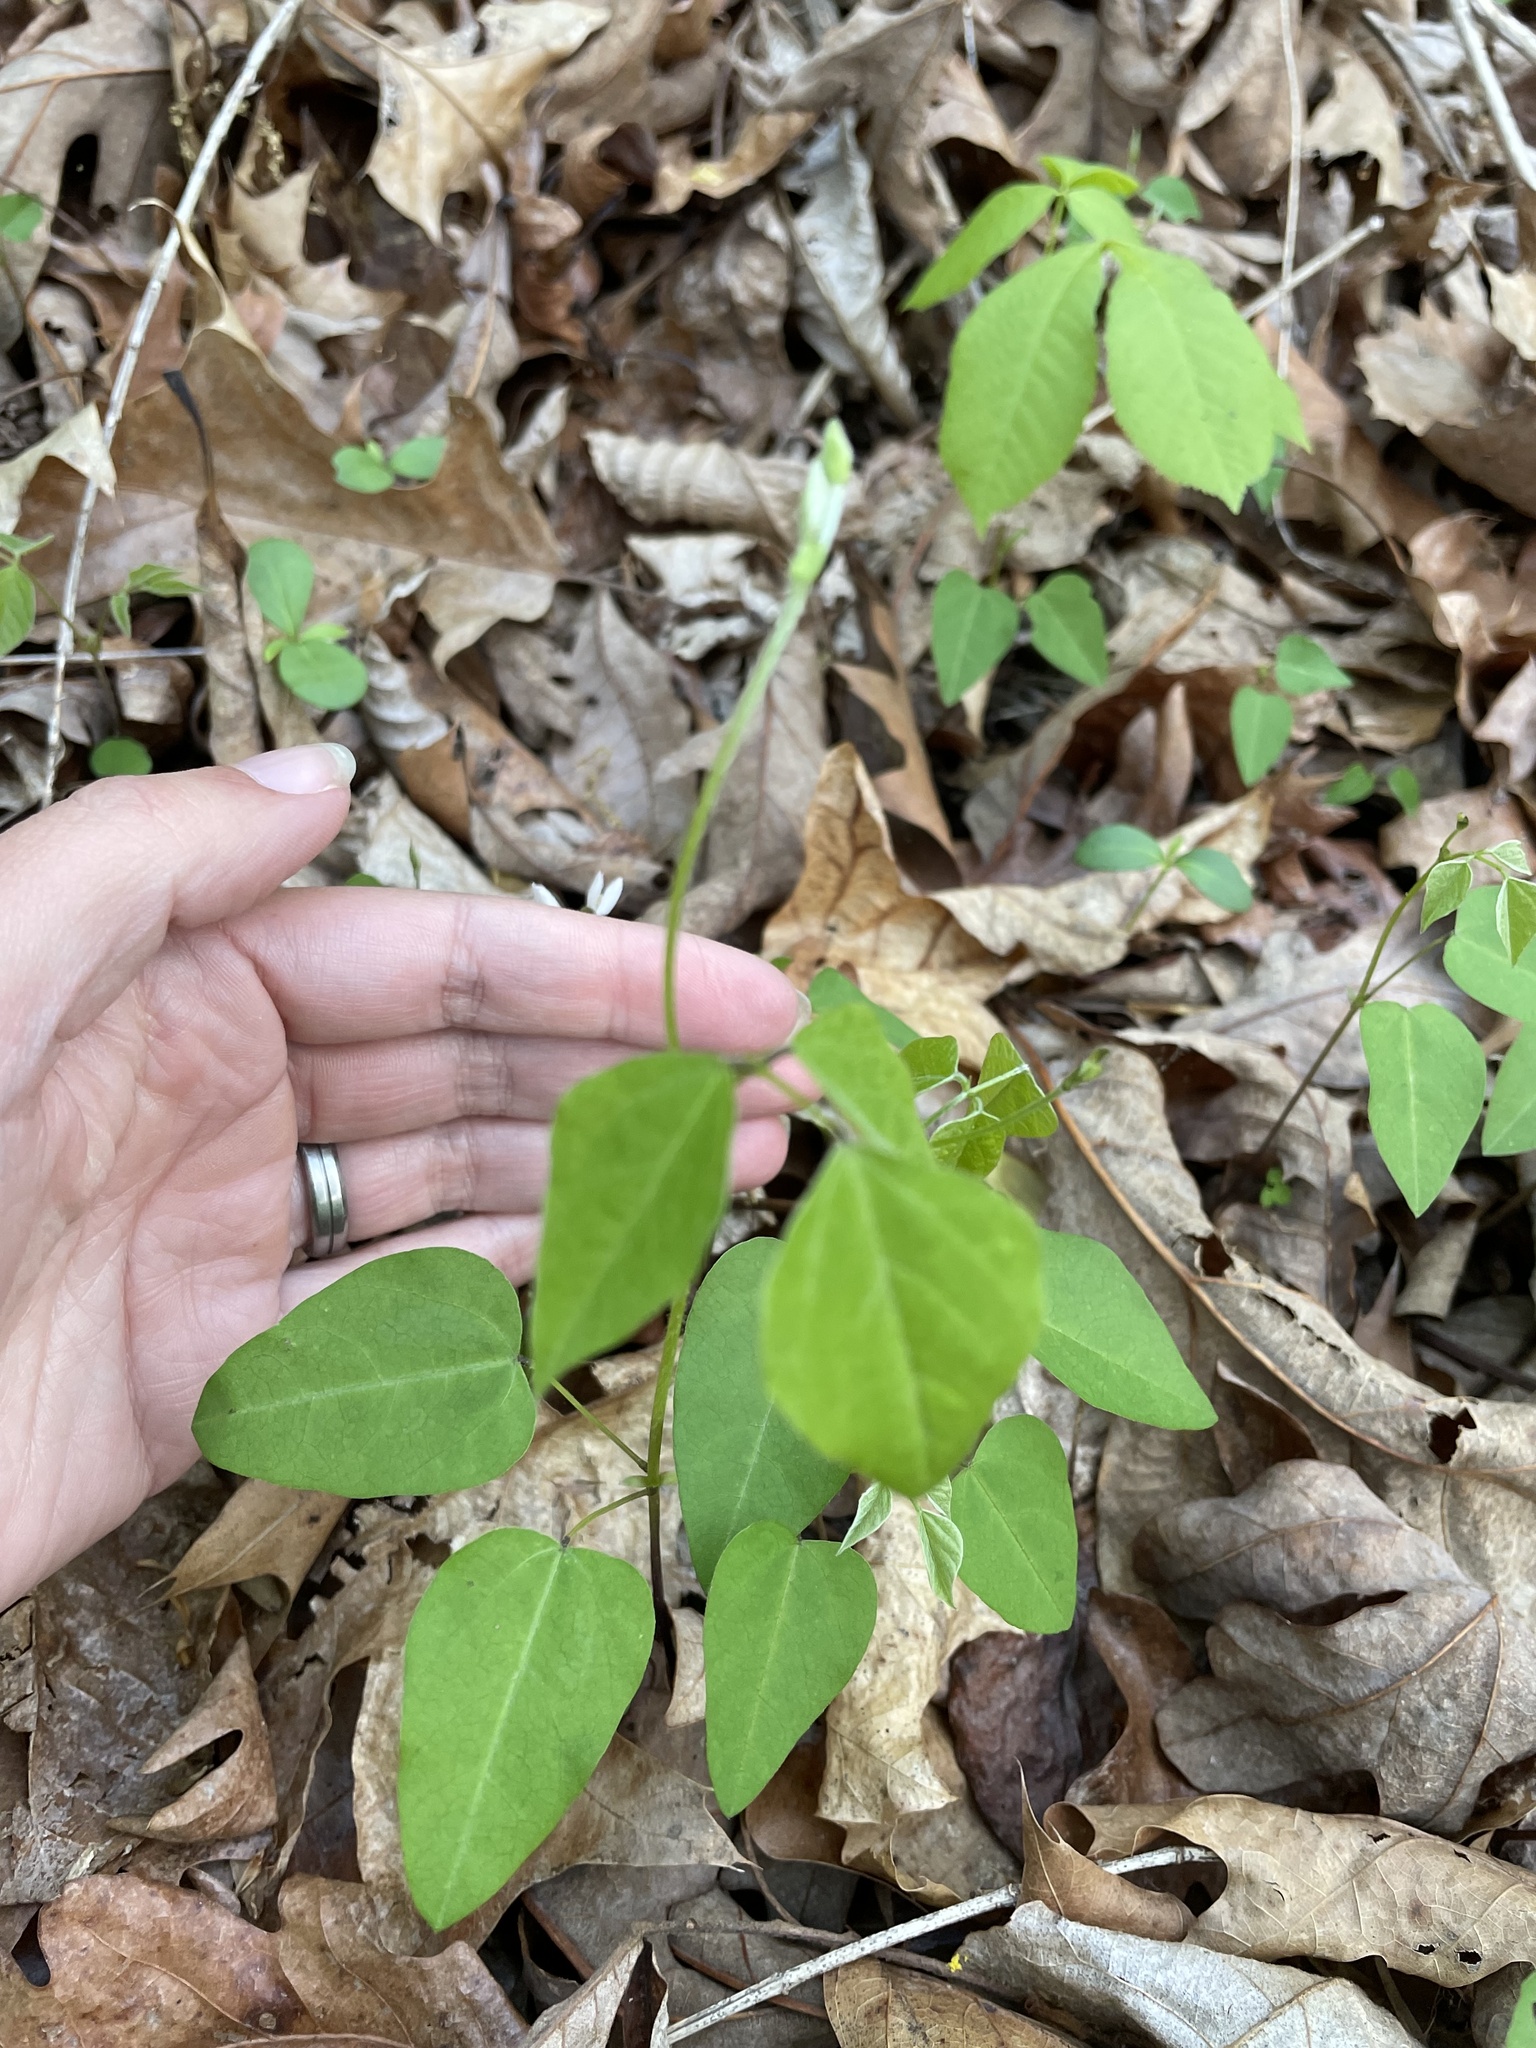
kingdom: Plantae
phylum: Tracheophyta
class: Magnoliopsida
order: Fabales
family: Fabaceae
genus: Amphicarpaea
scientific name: Amphicarpaea bracteata
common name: American hog peanut
